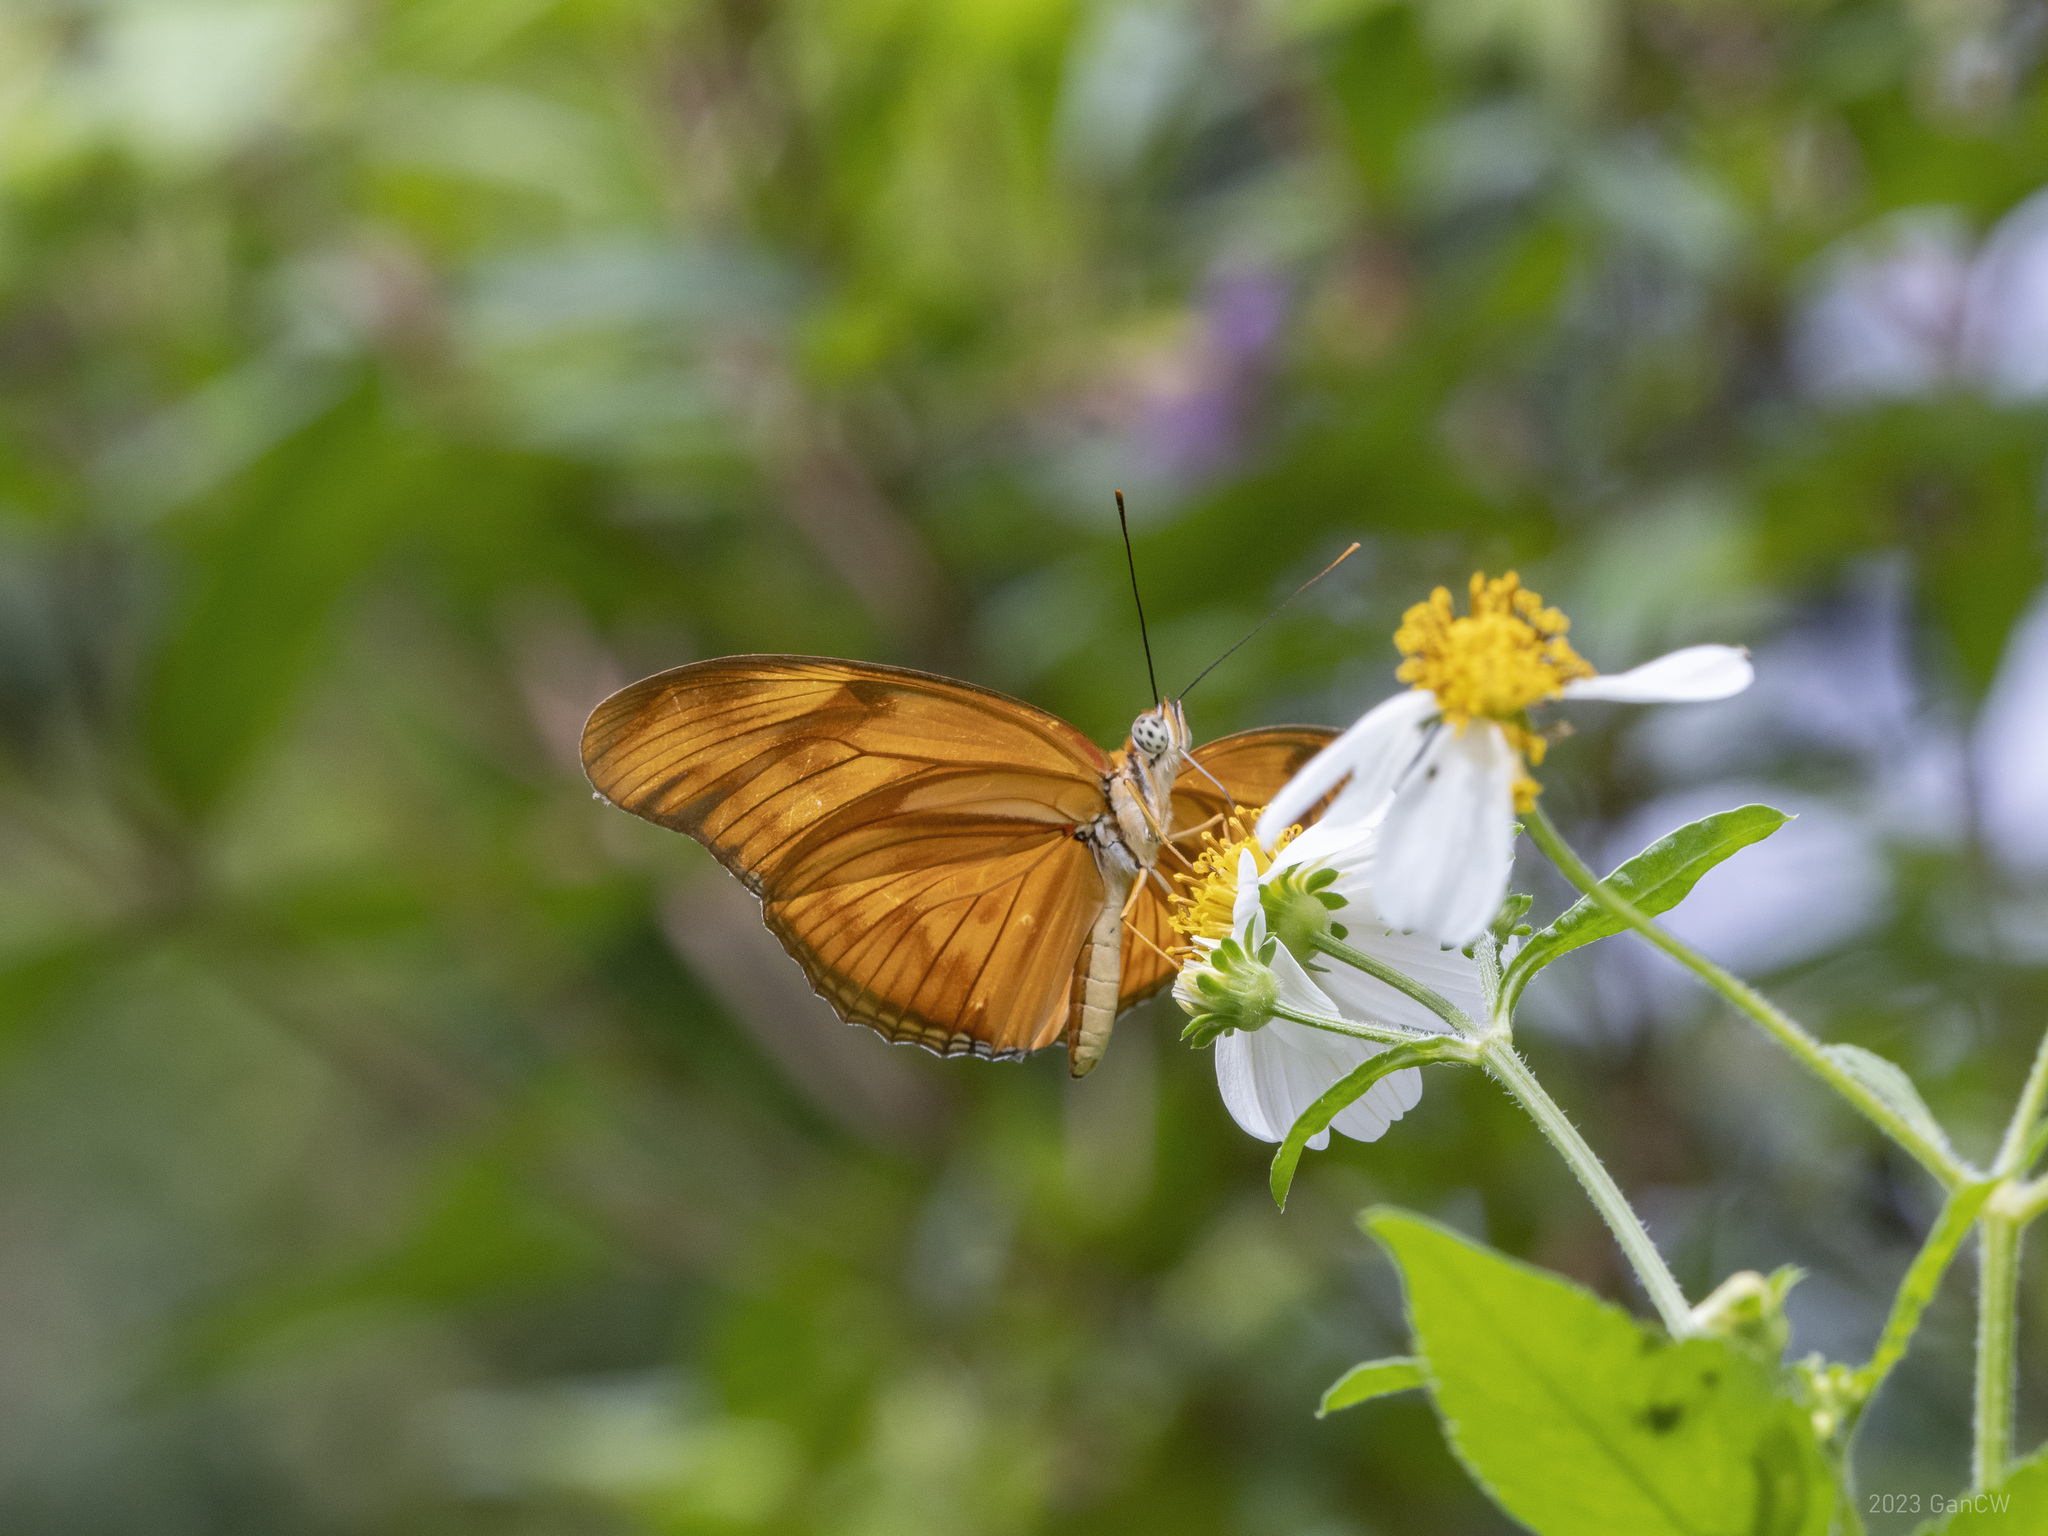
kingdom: Animalia
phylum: Arthropoda
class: Insecta
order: Lepidoptera
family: Nymphalidae
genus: Dryas
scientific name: Dryas iulia
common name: Flambeau
